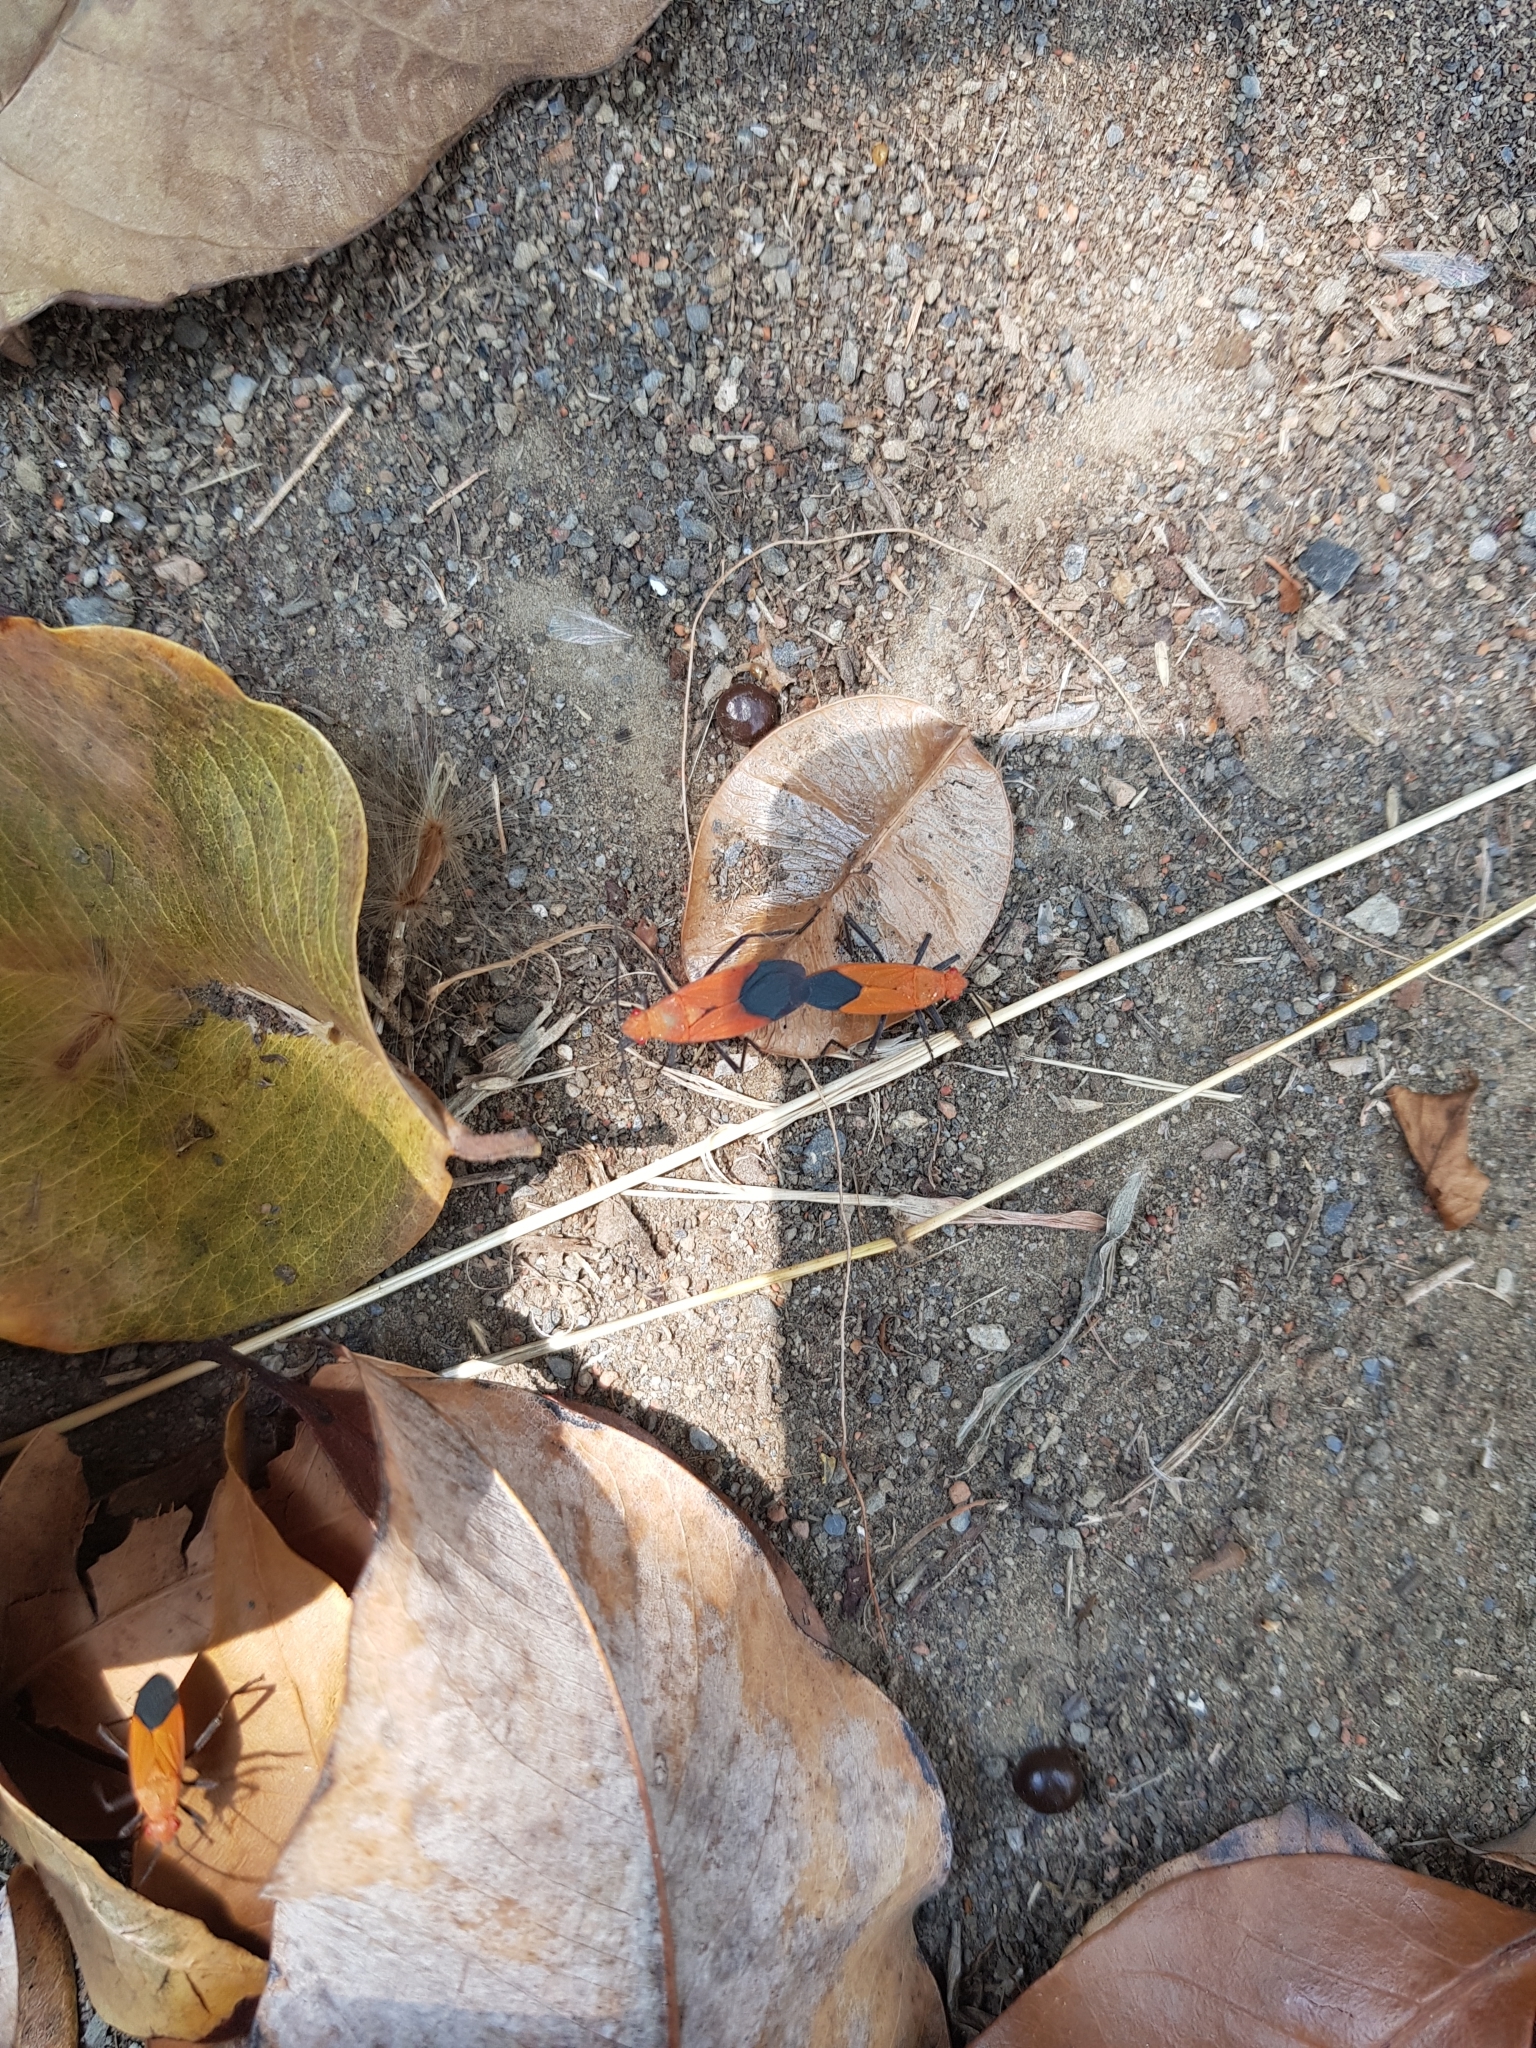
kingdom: Animalia
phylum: Arthropoda
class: Insecta
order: Hemiptera
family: Rhopalidae
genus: Leptocoris
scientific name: Leptocoris augur
